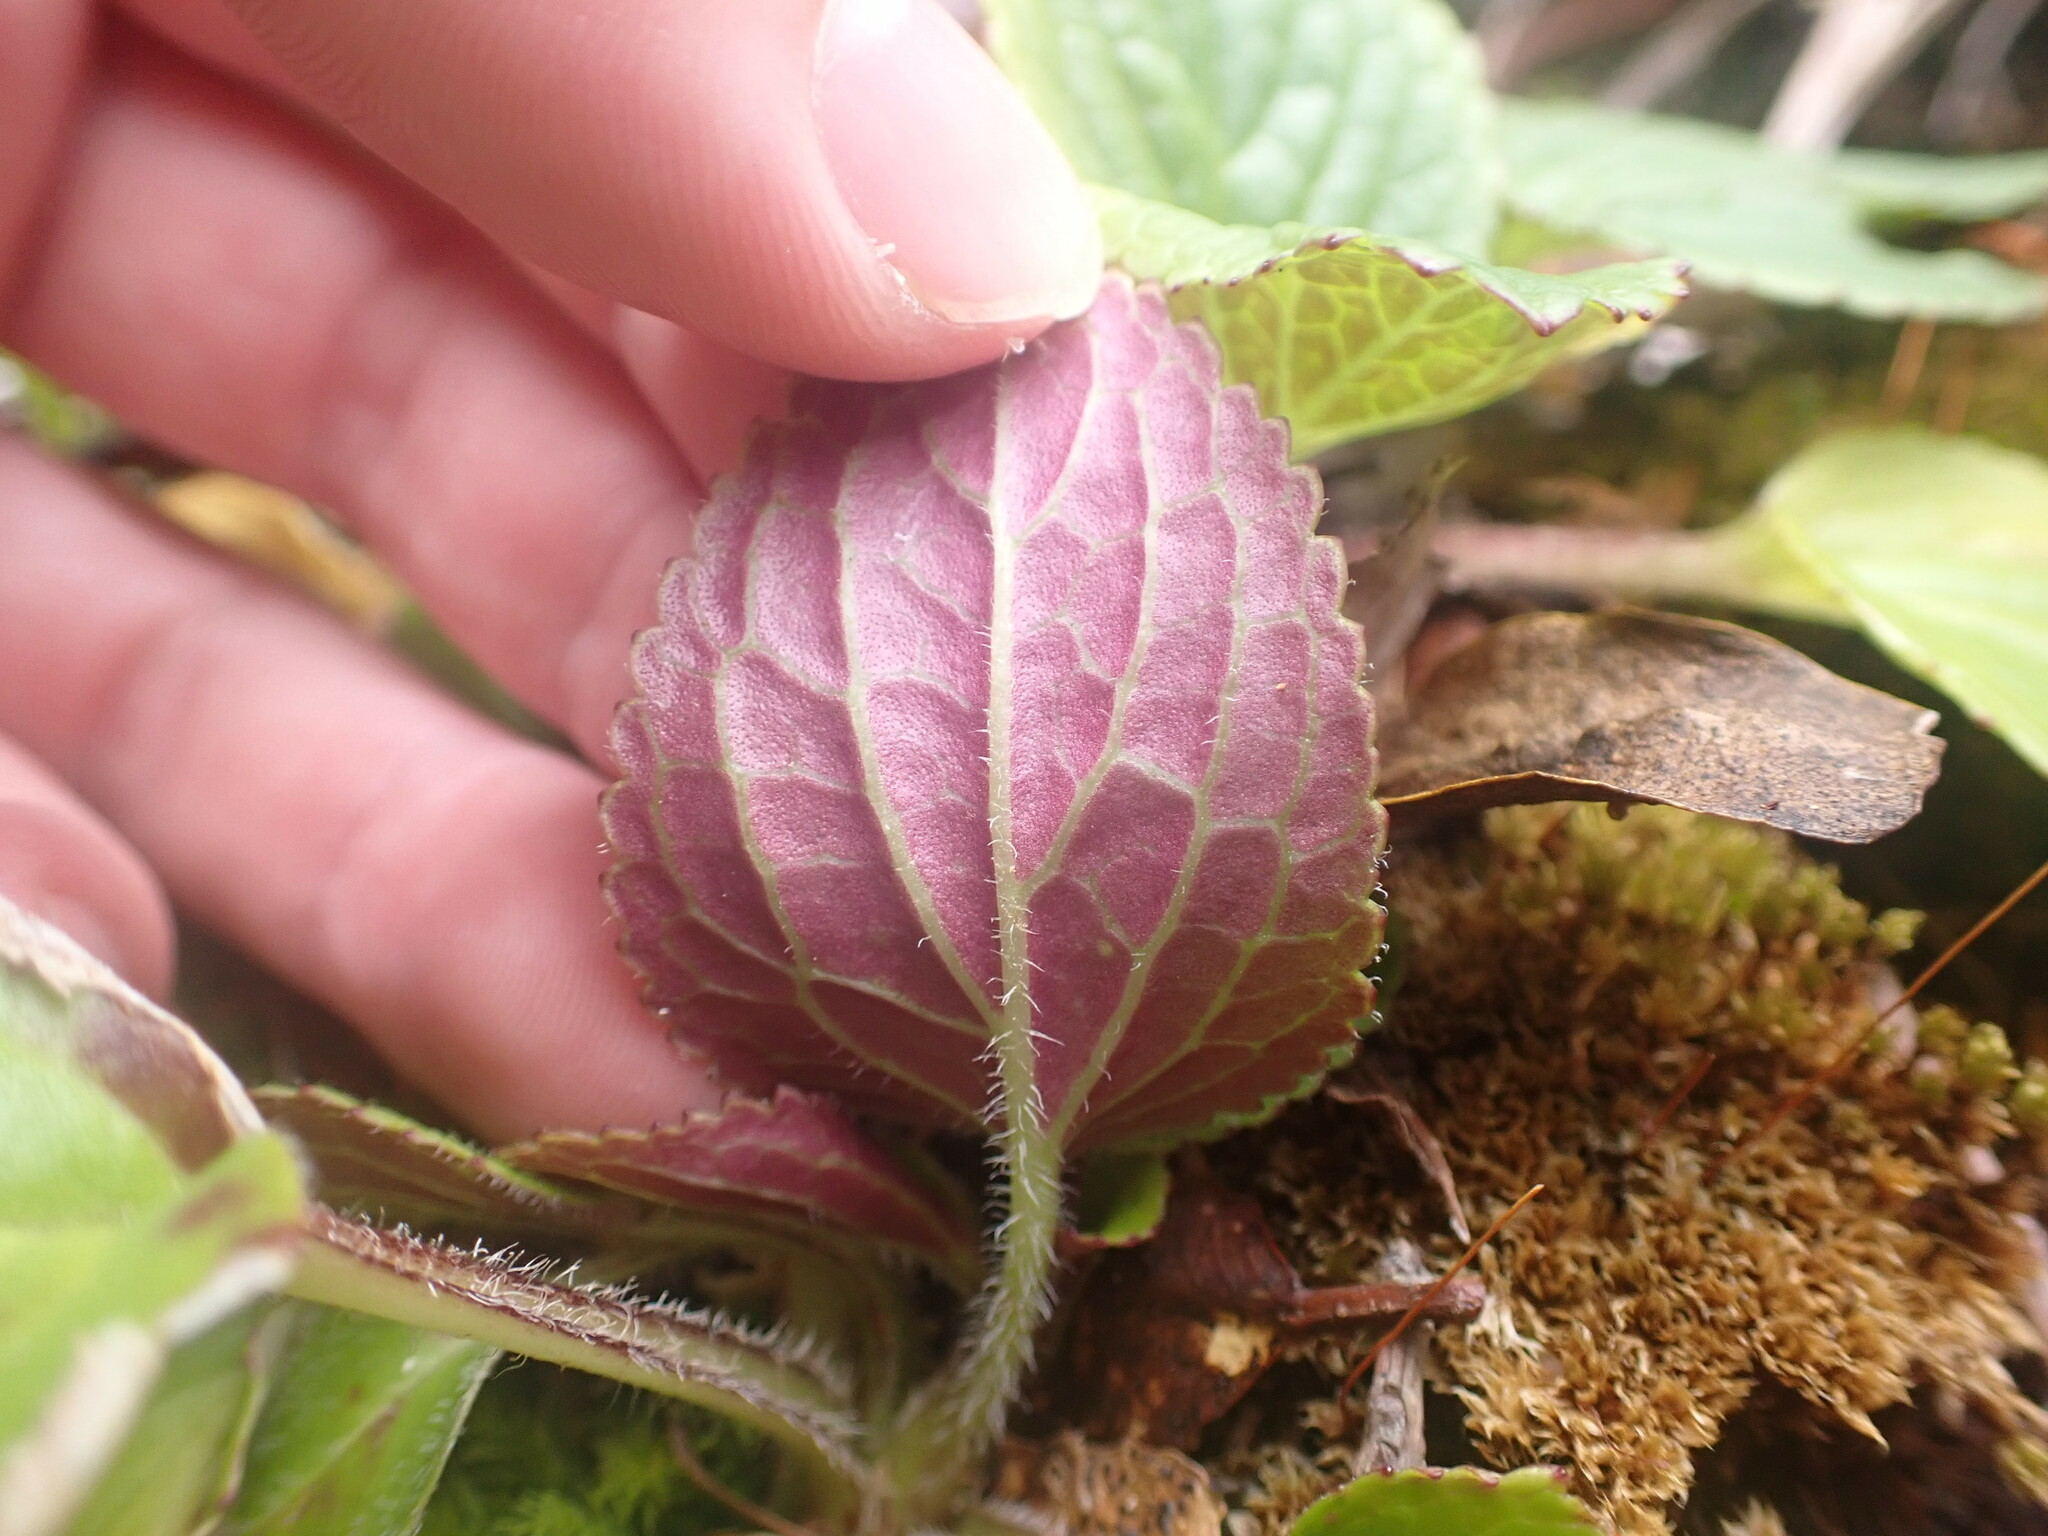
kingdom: Plantae
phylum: Tracheophyta
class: Magnoliopsida
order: Lamiales
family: Plantaginaceae
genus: Ourisia
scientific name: Ourisia macrophylla
